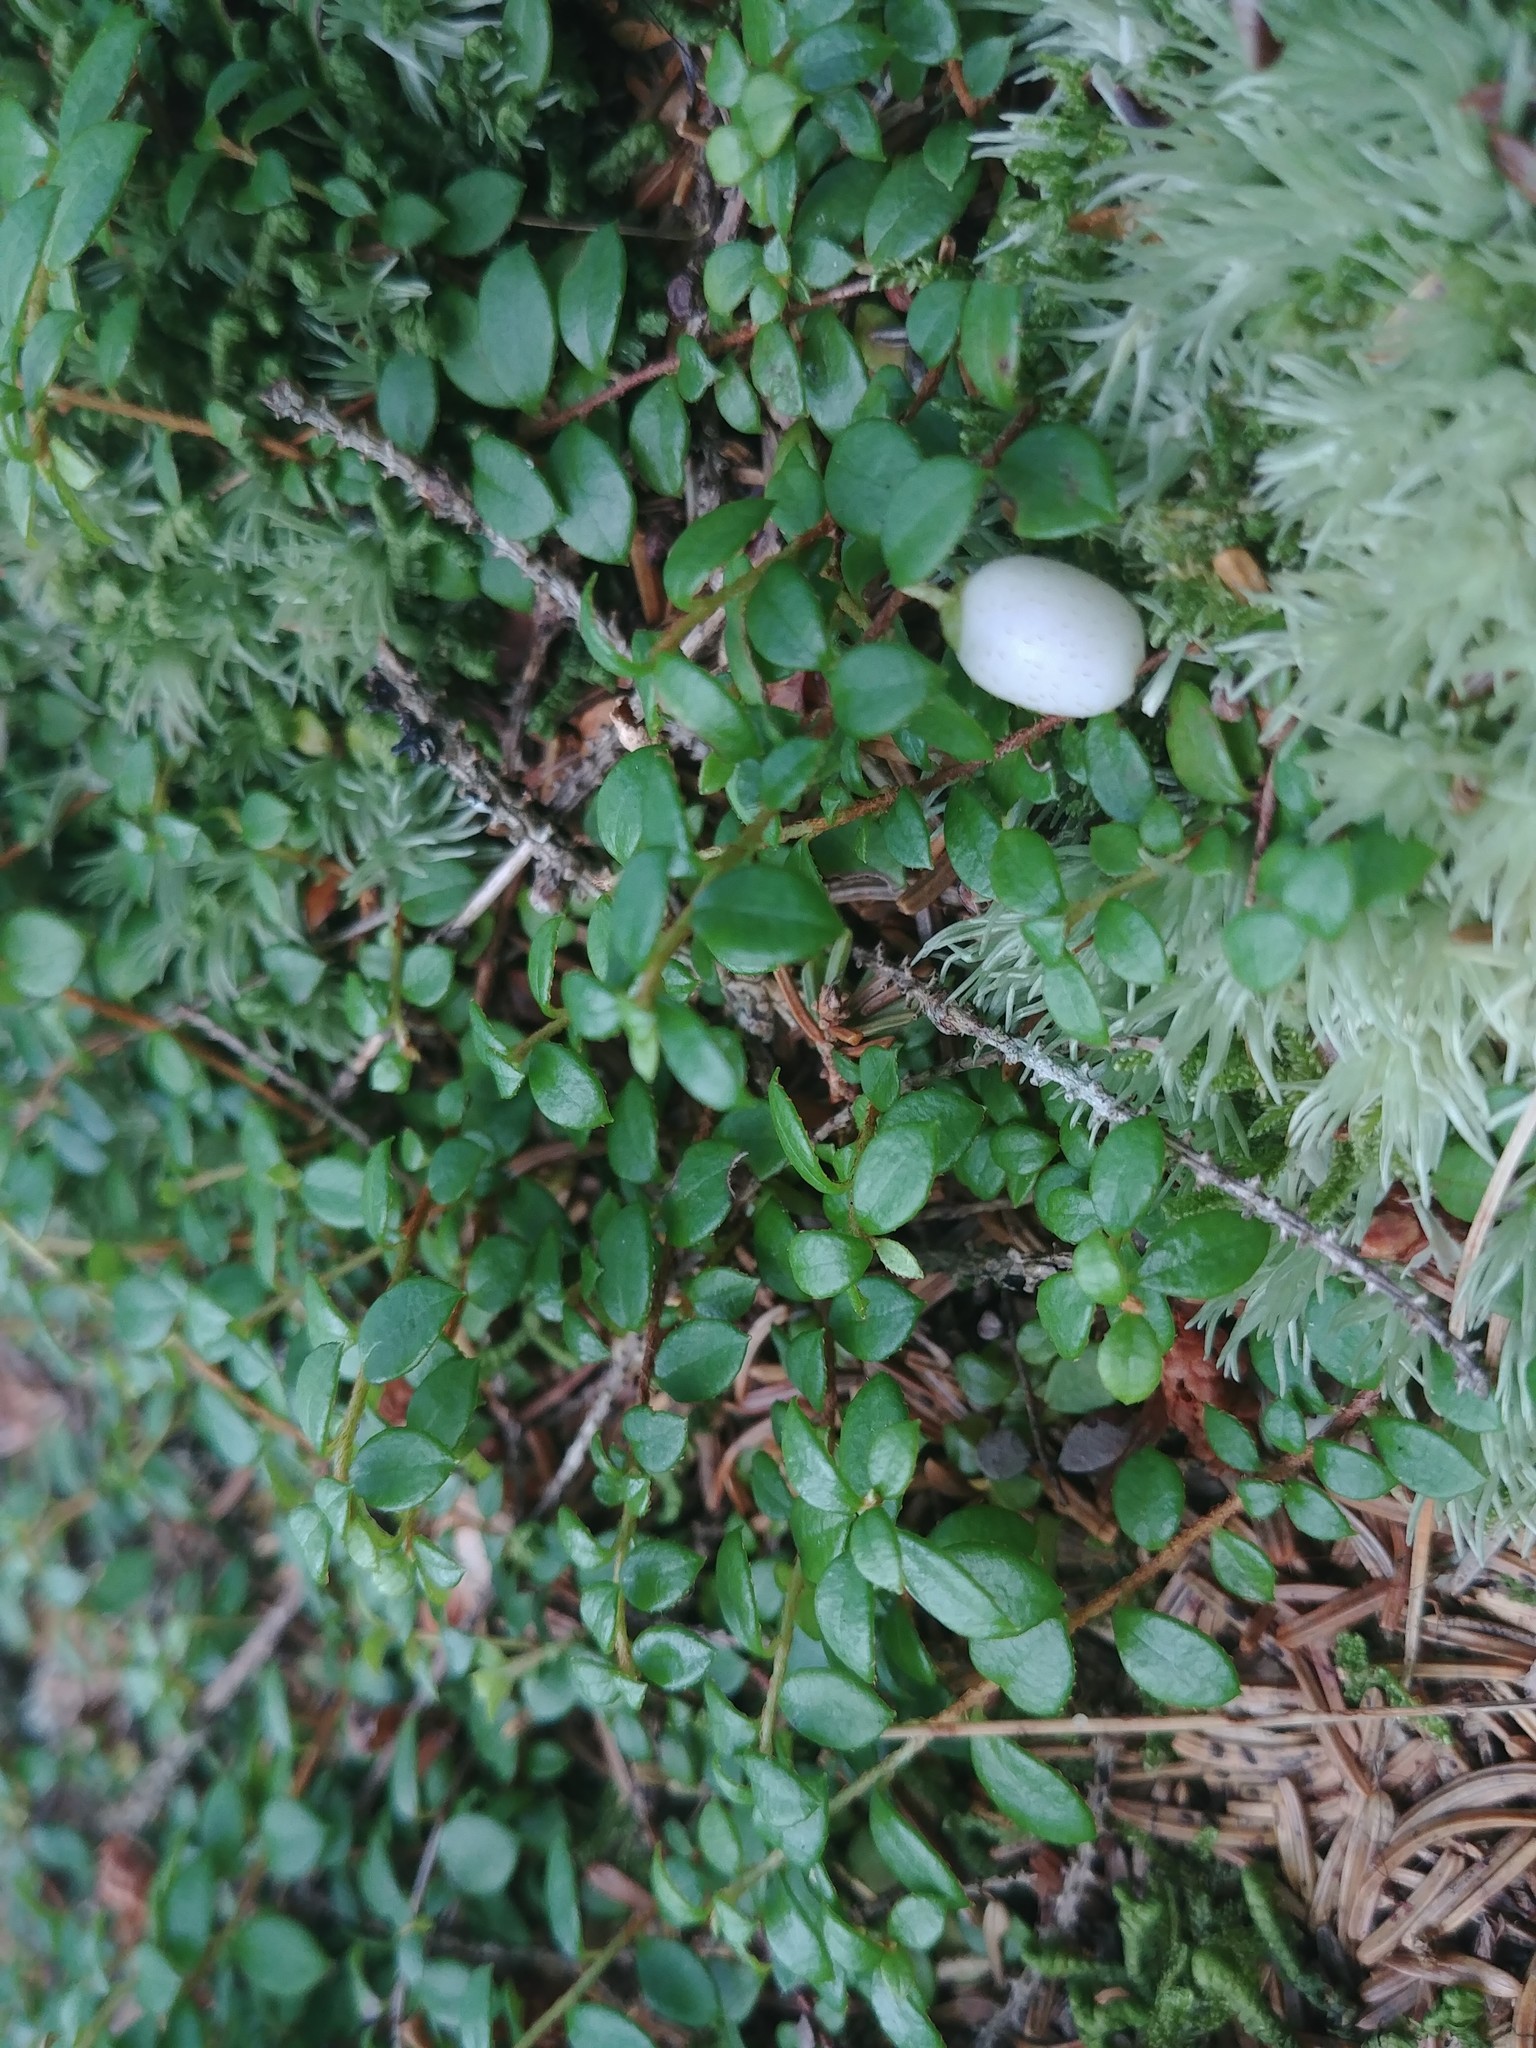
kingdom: Plantae
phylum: Tracheophyta
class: Magnoliopsida
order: Ericales
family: Ericaceae
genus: Gaultheria
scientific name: Gaultheria hispidula
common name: Cancer wintergreen
